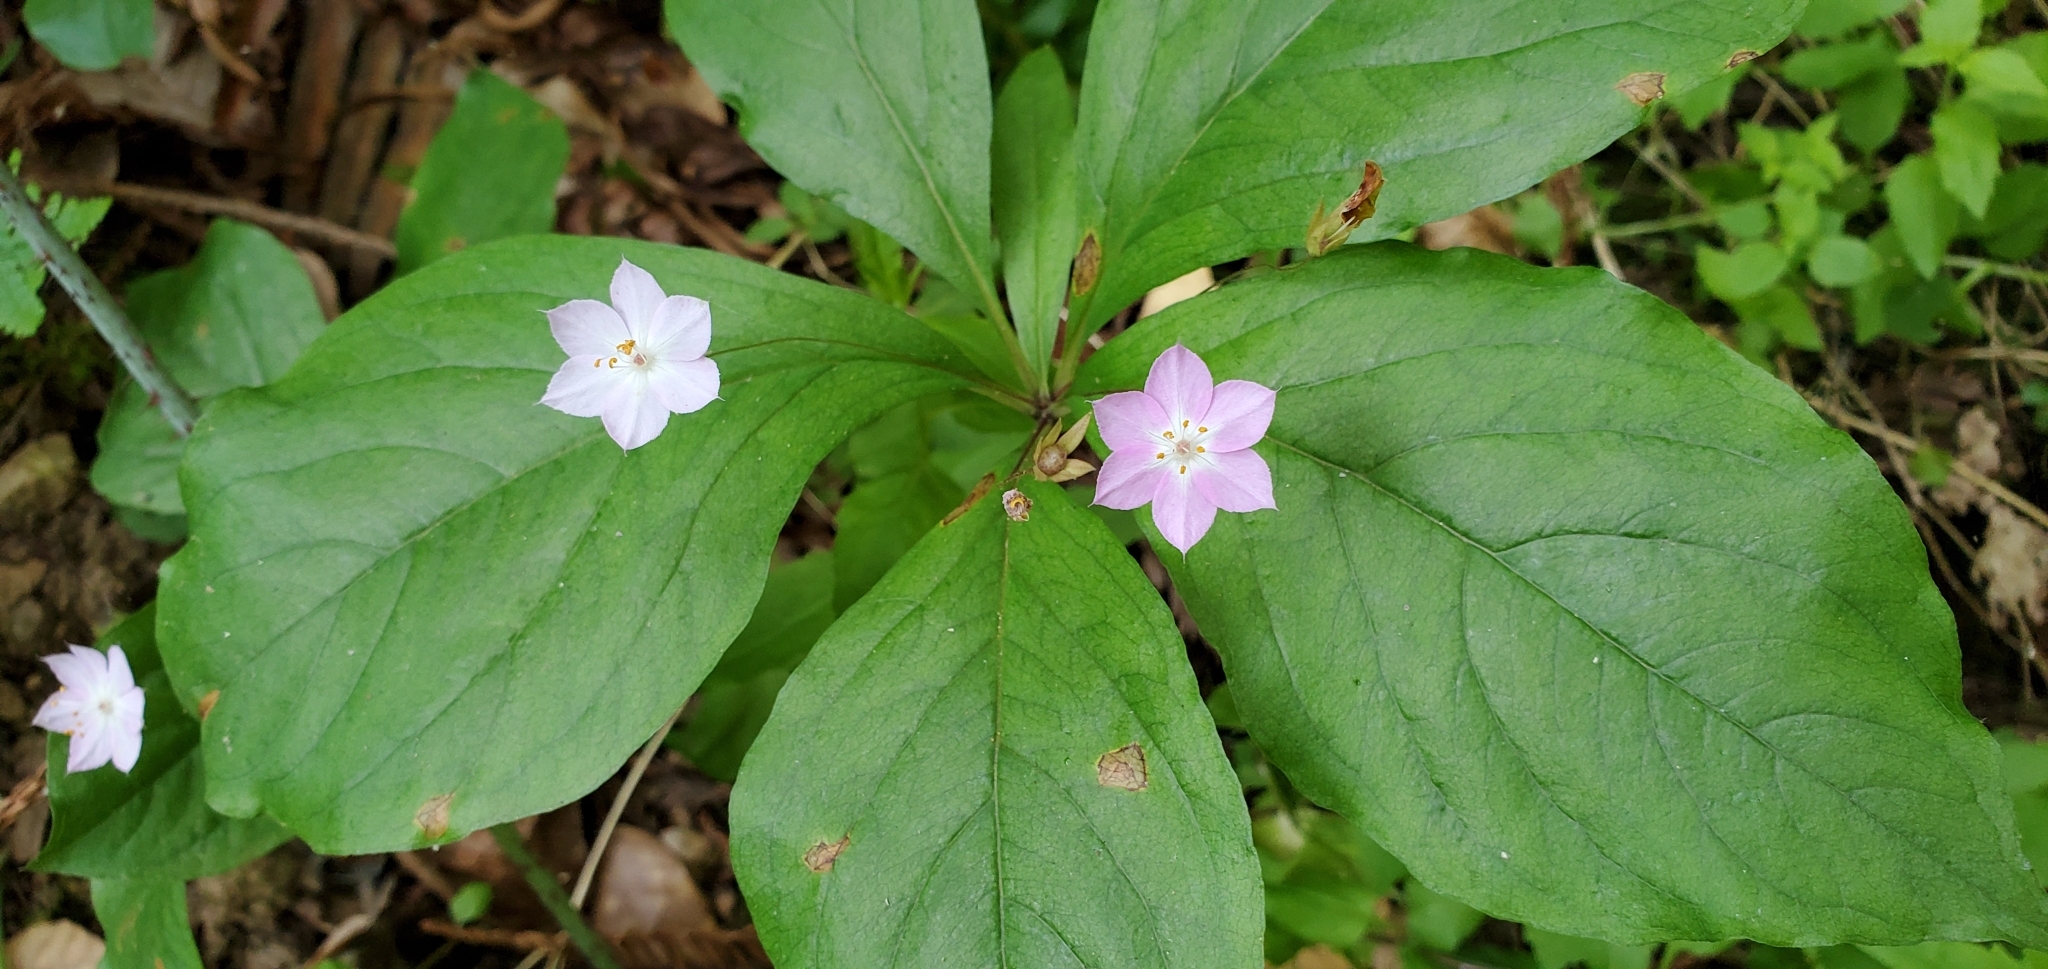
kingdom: Plantae
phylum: Tracheophyta
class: Magnoliopsida
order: Ericales
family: Primulaceae
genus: Lysimachia
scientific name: Lysimachia latifolia
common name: Pacific starflower
